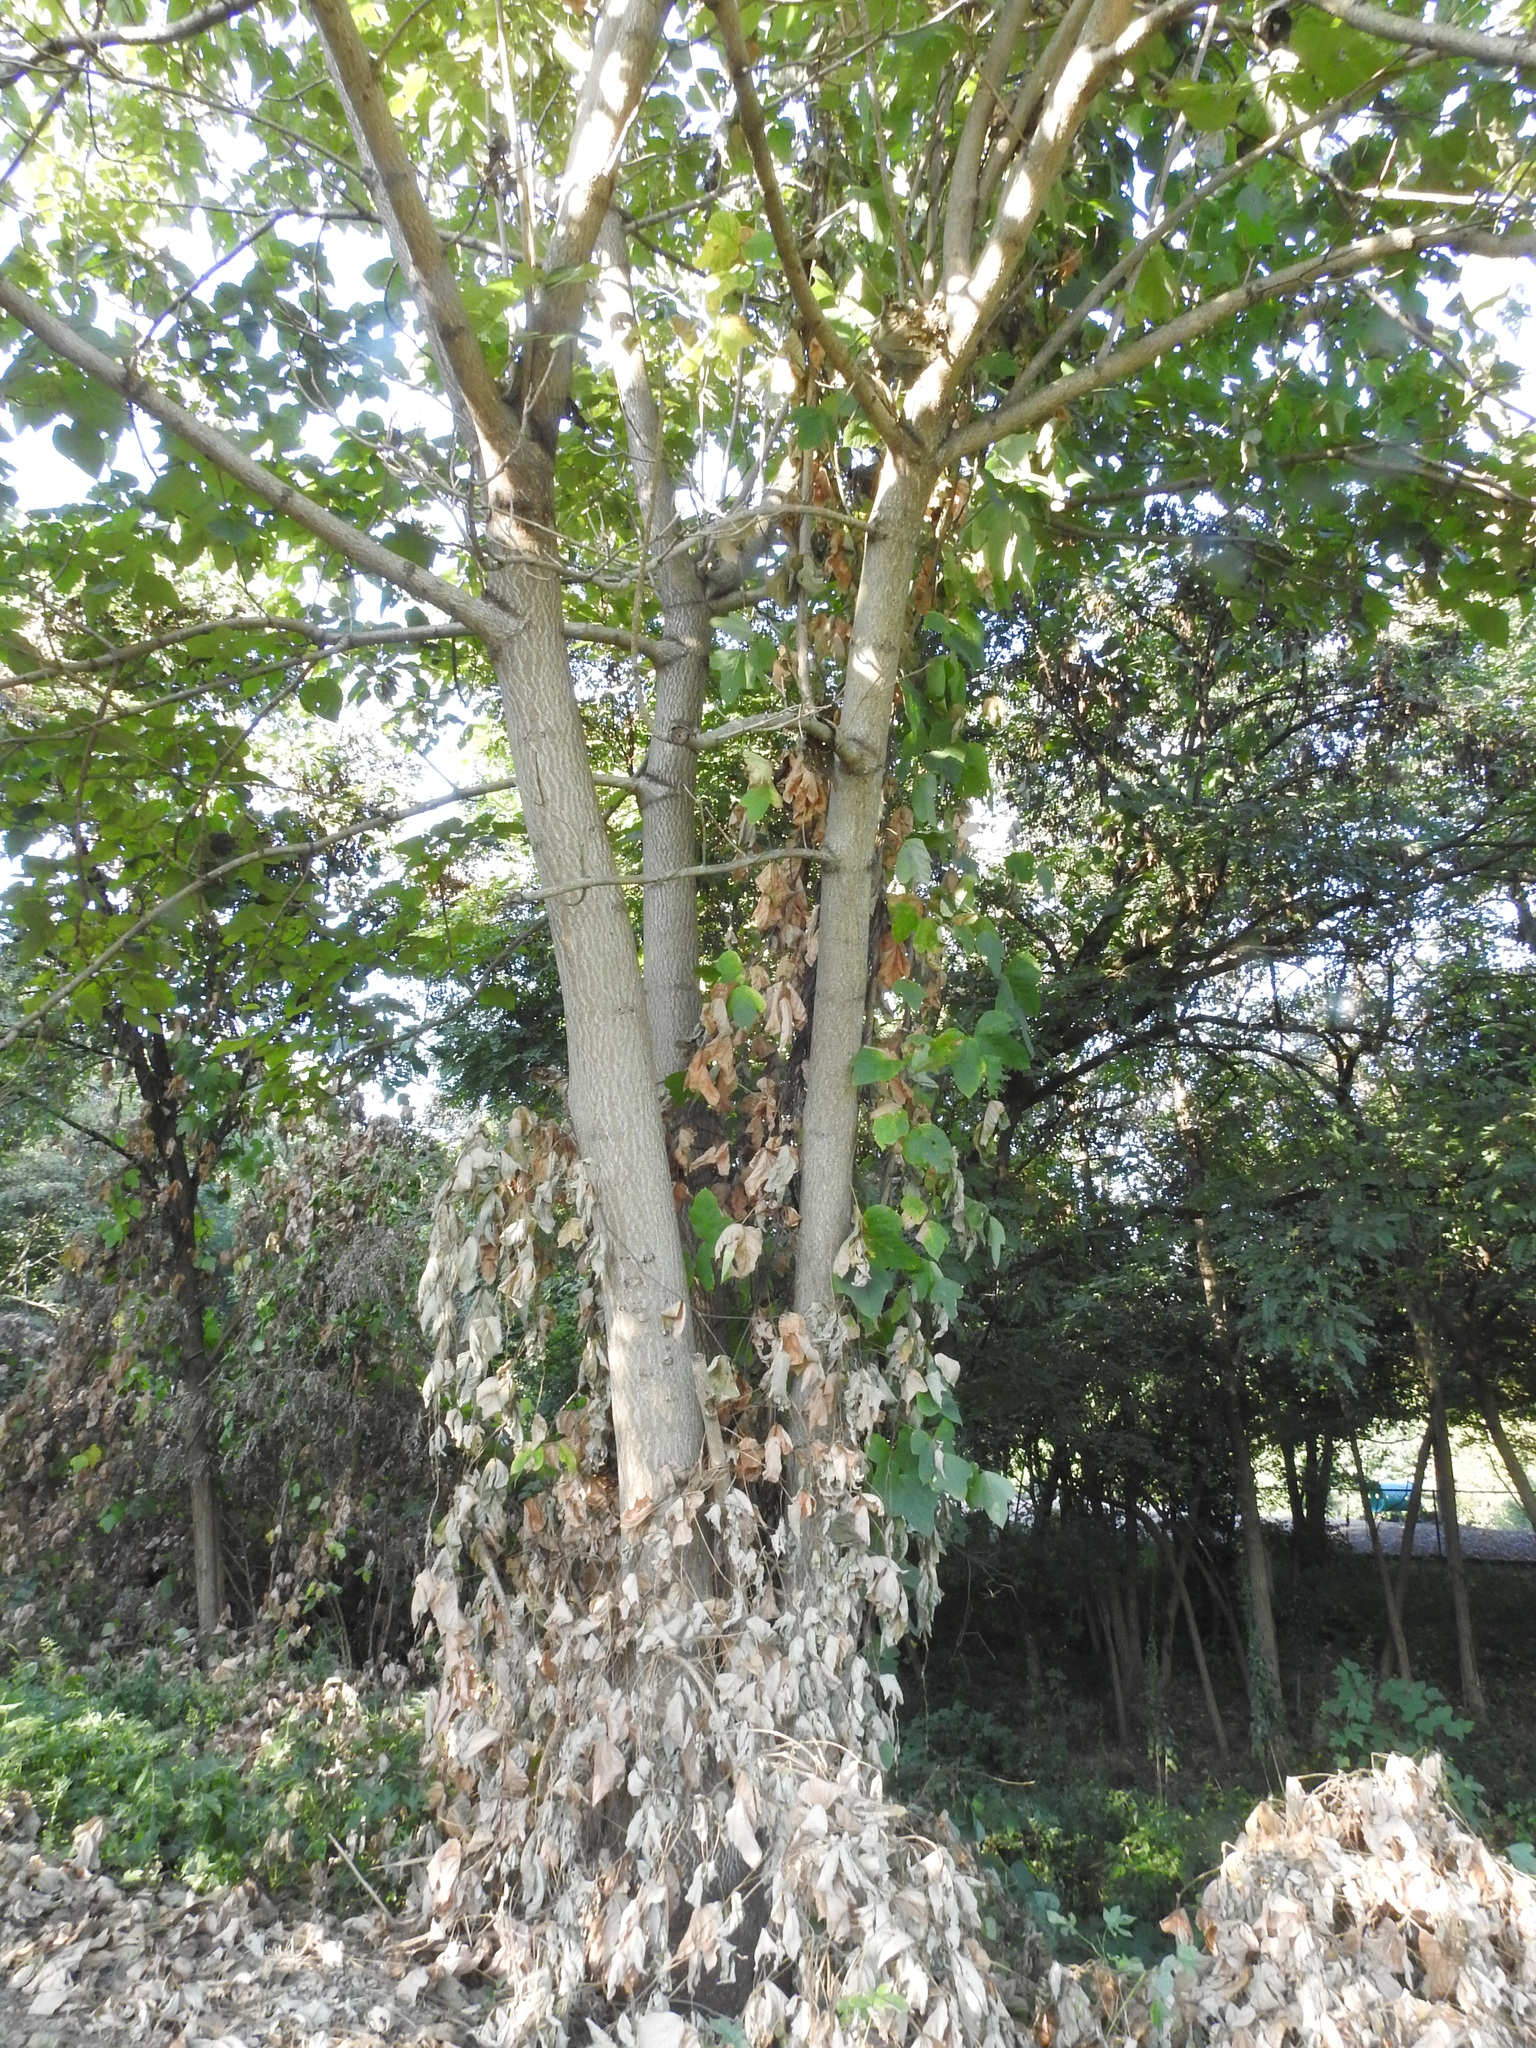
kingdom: Plantae
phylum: Tracheophyta
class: Magnoliopsida
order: Lamiales
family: Paulowniaceae
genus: Paulownia
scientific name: Paulownia tomentosa
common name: Foxglove-tree
